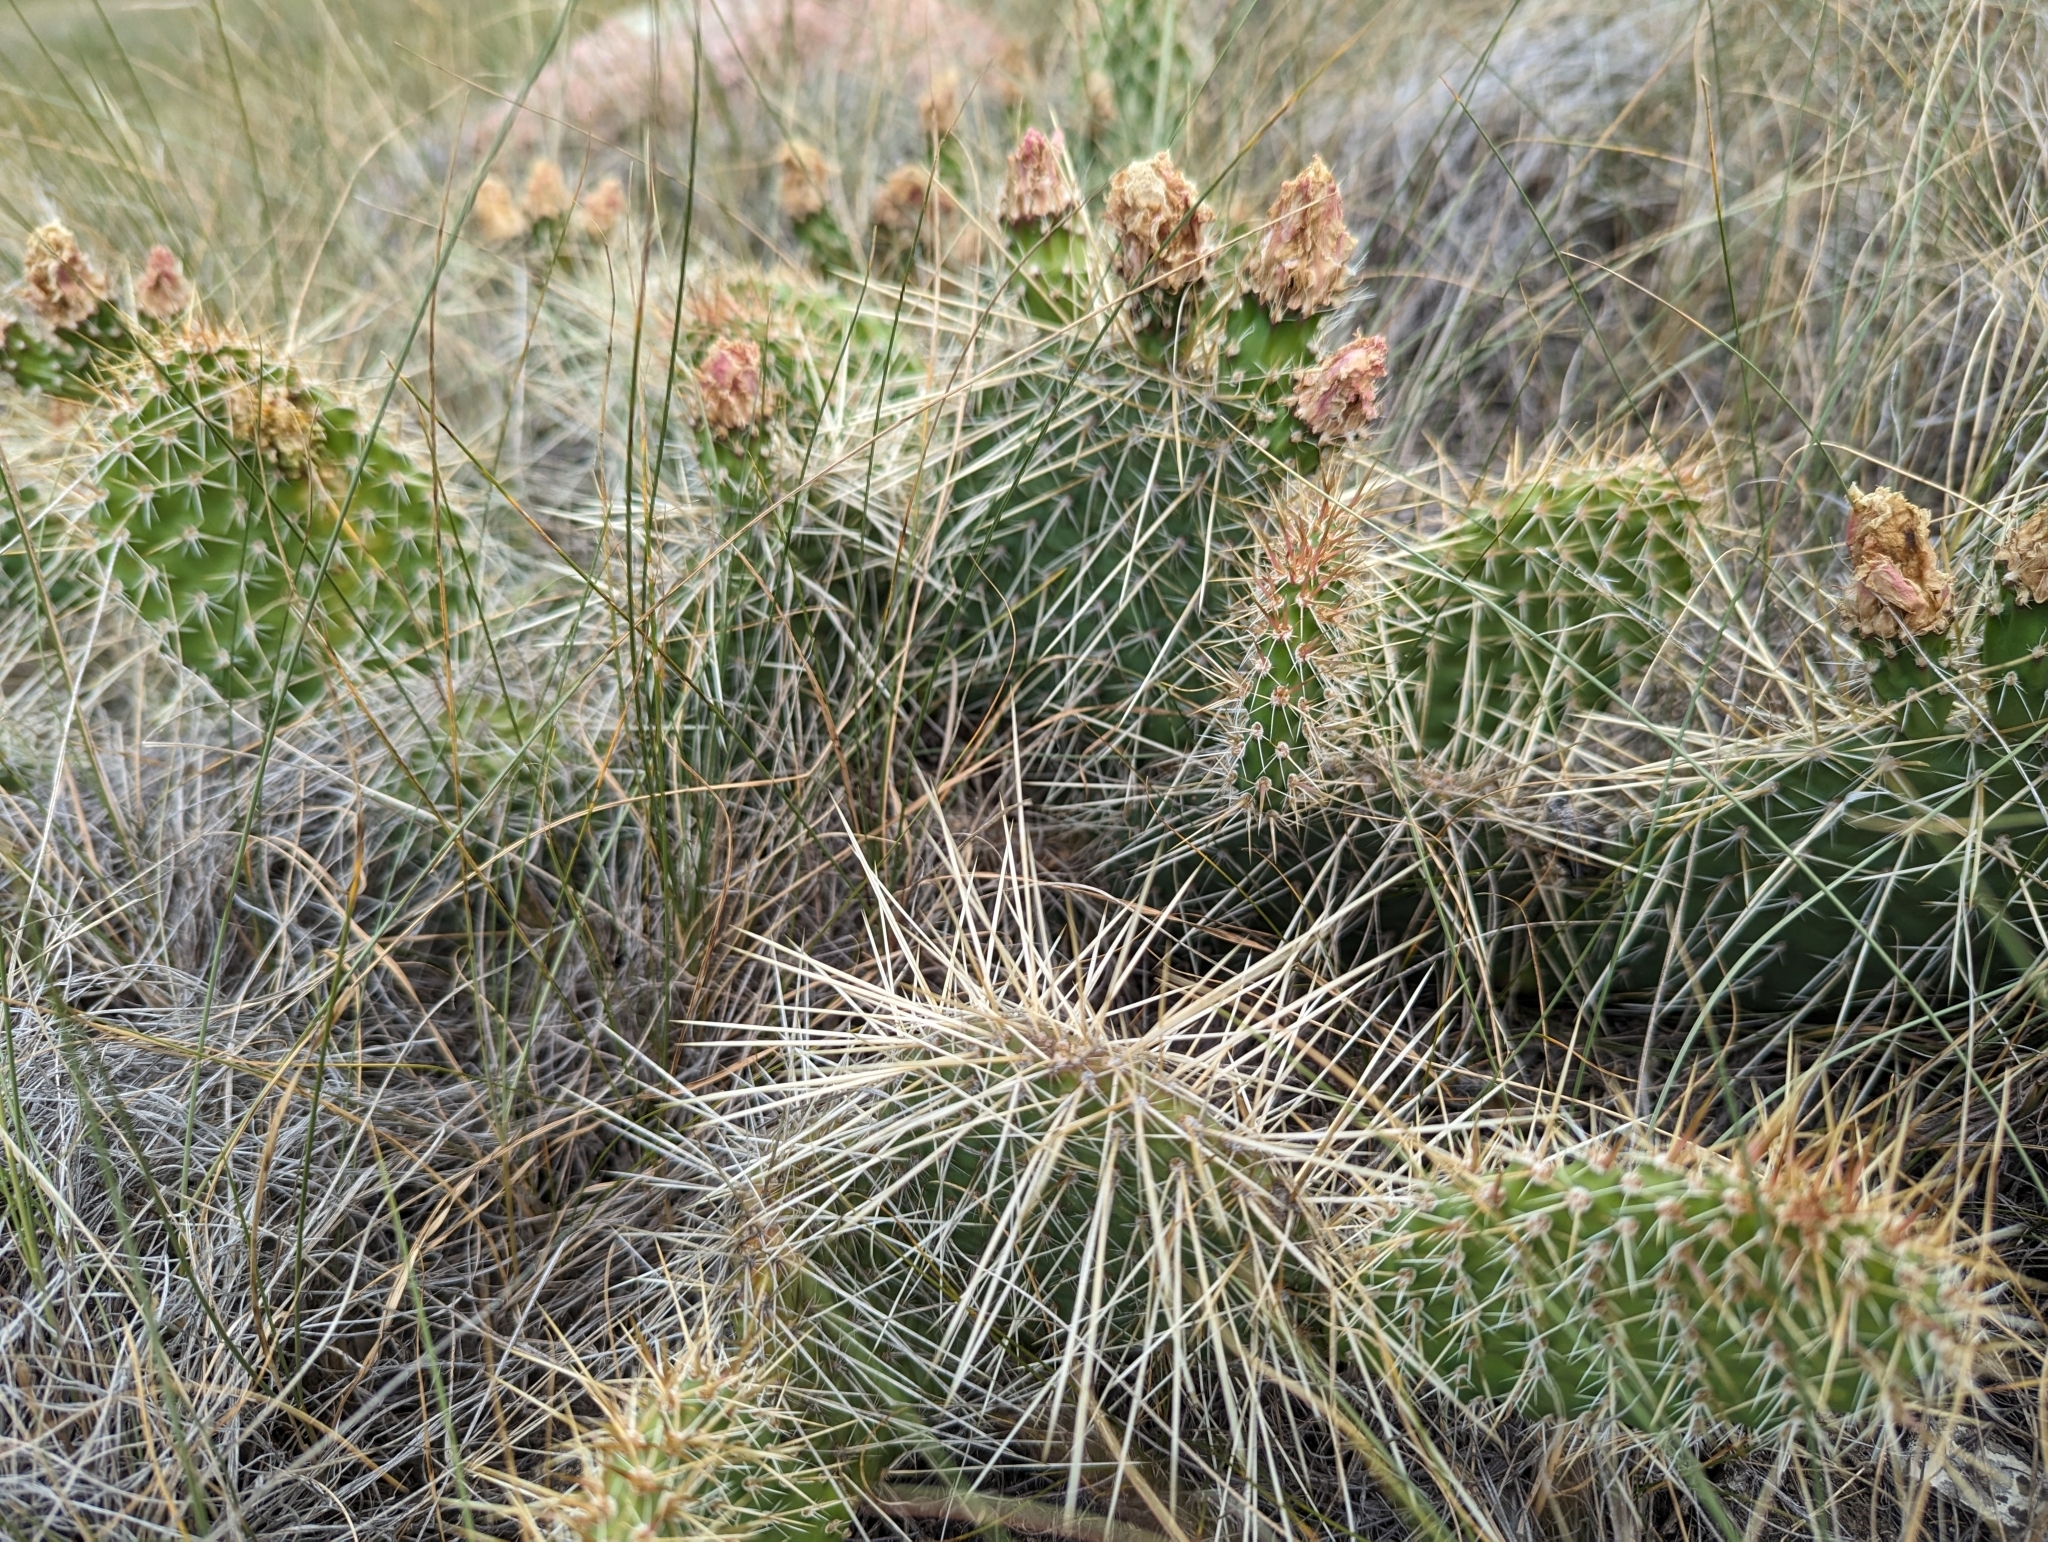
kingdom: Plantae
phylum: Tracheophyta
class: Magnoliopsida
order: Caryophyllales
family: Cactaceae
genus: Opuntia
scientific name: Opuntia polyacantha
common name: Plains prickly-pear
